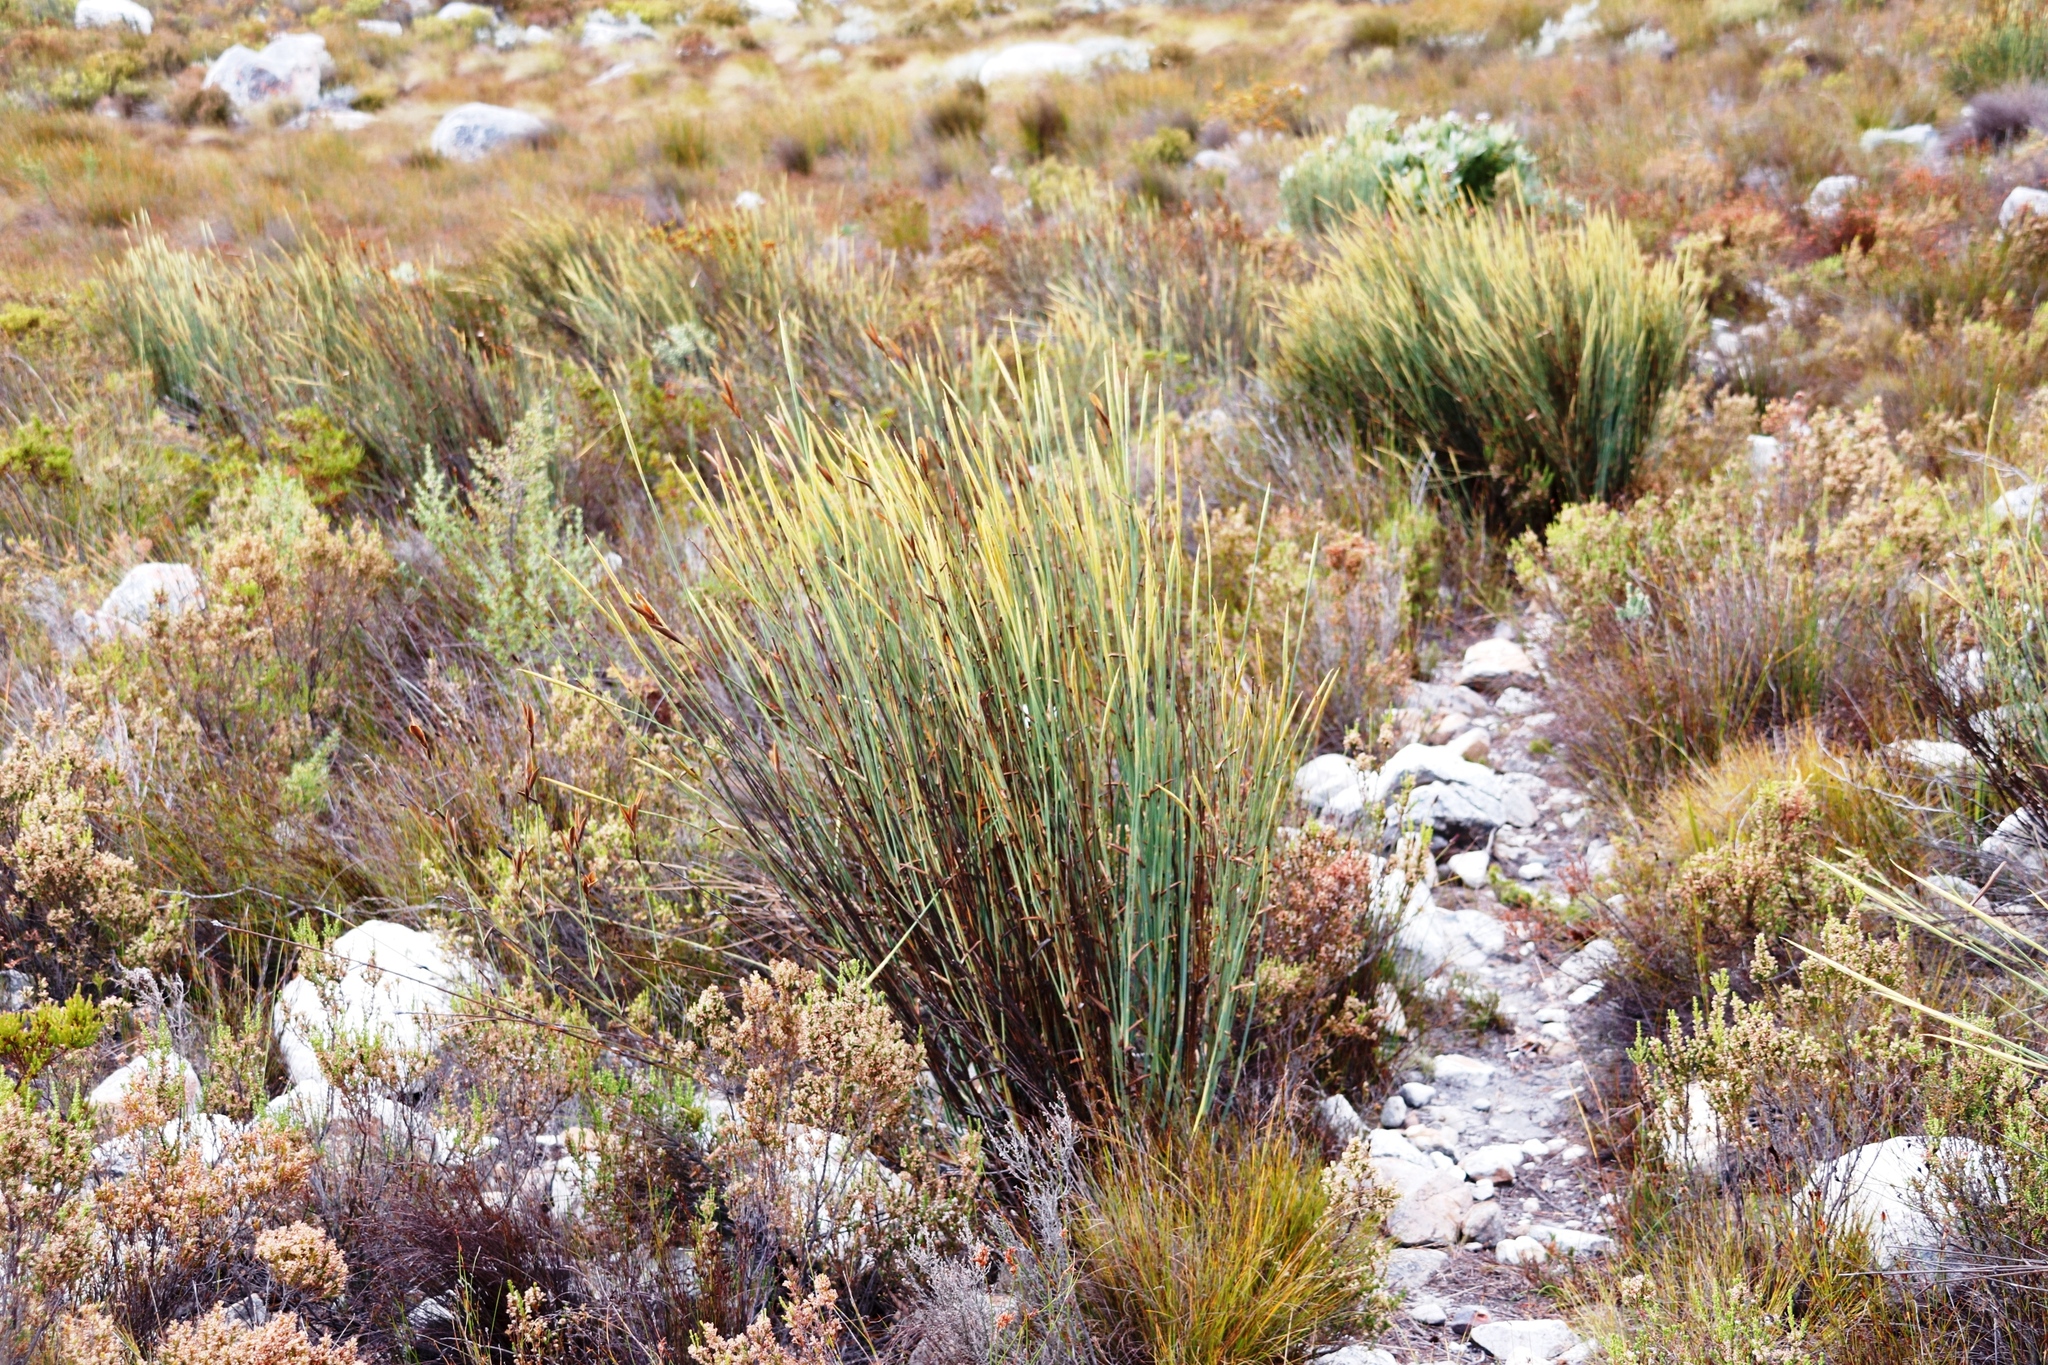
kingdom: Plantae
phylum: Tracheophyta
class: Liliopsida
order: Poales
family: Restionaceae
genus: Elegia
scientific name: Elegia grandis
